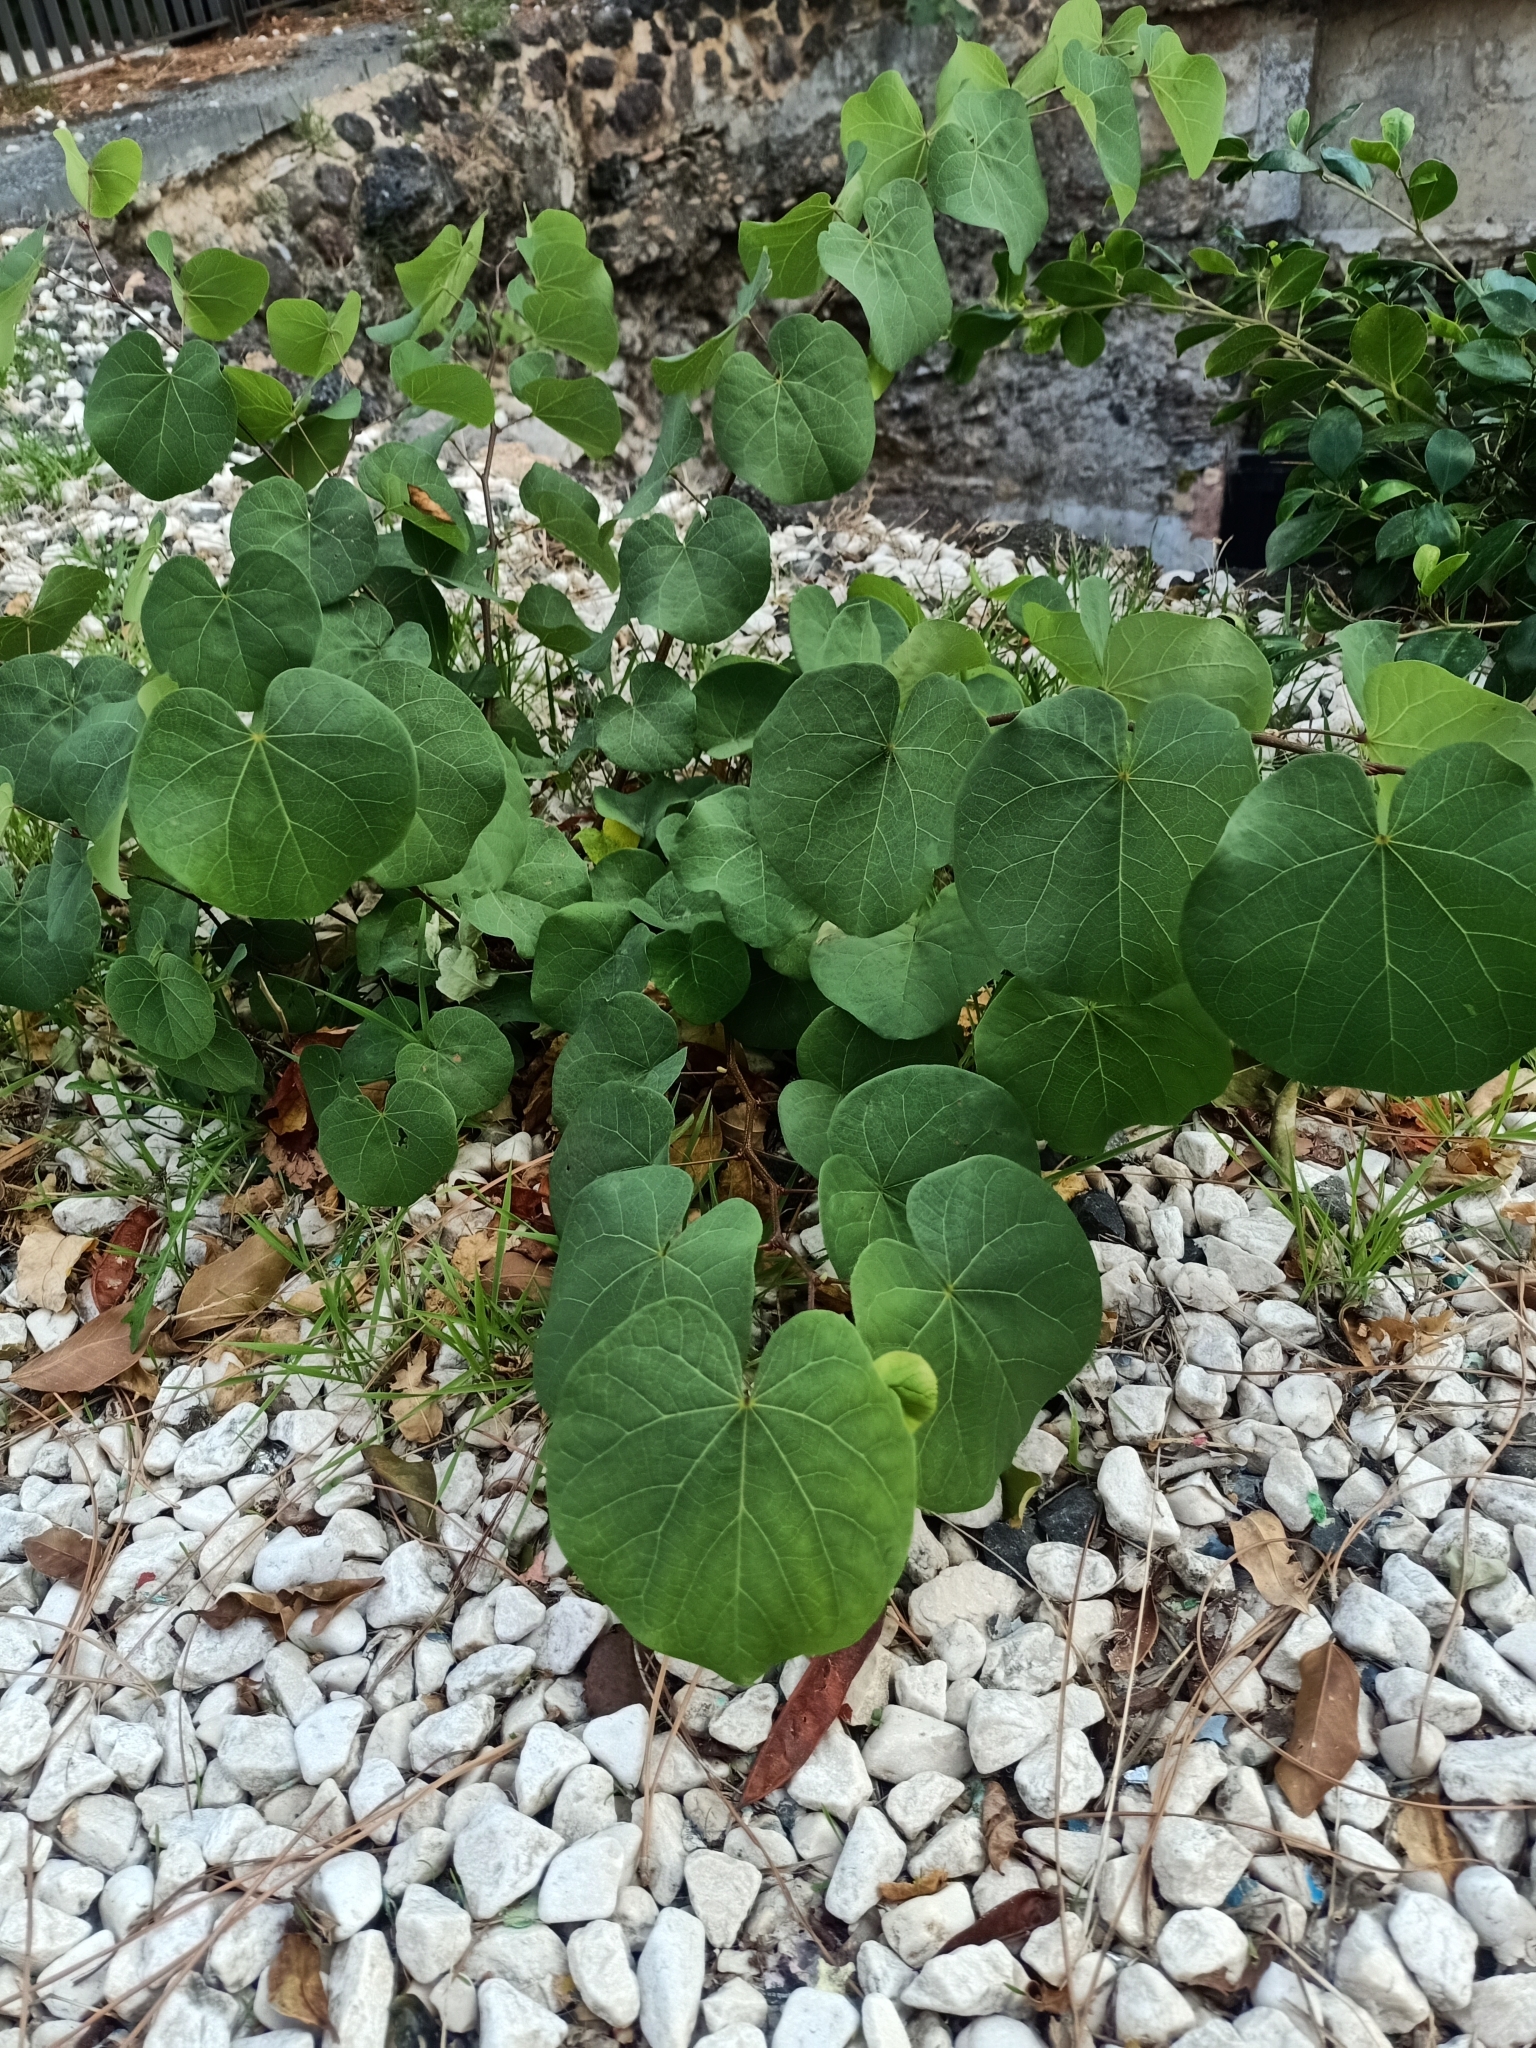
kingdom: Plantae
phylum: Tracheophyta
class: Magnoliopsida
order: Fabales
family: Fabaceae
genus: Cercis
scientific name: Cercis siliquastrum
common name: Judas tree
